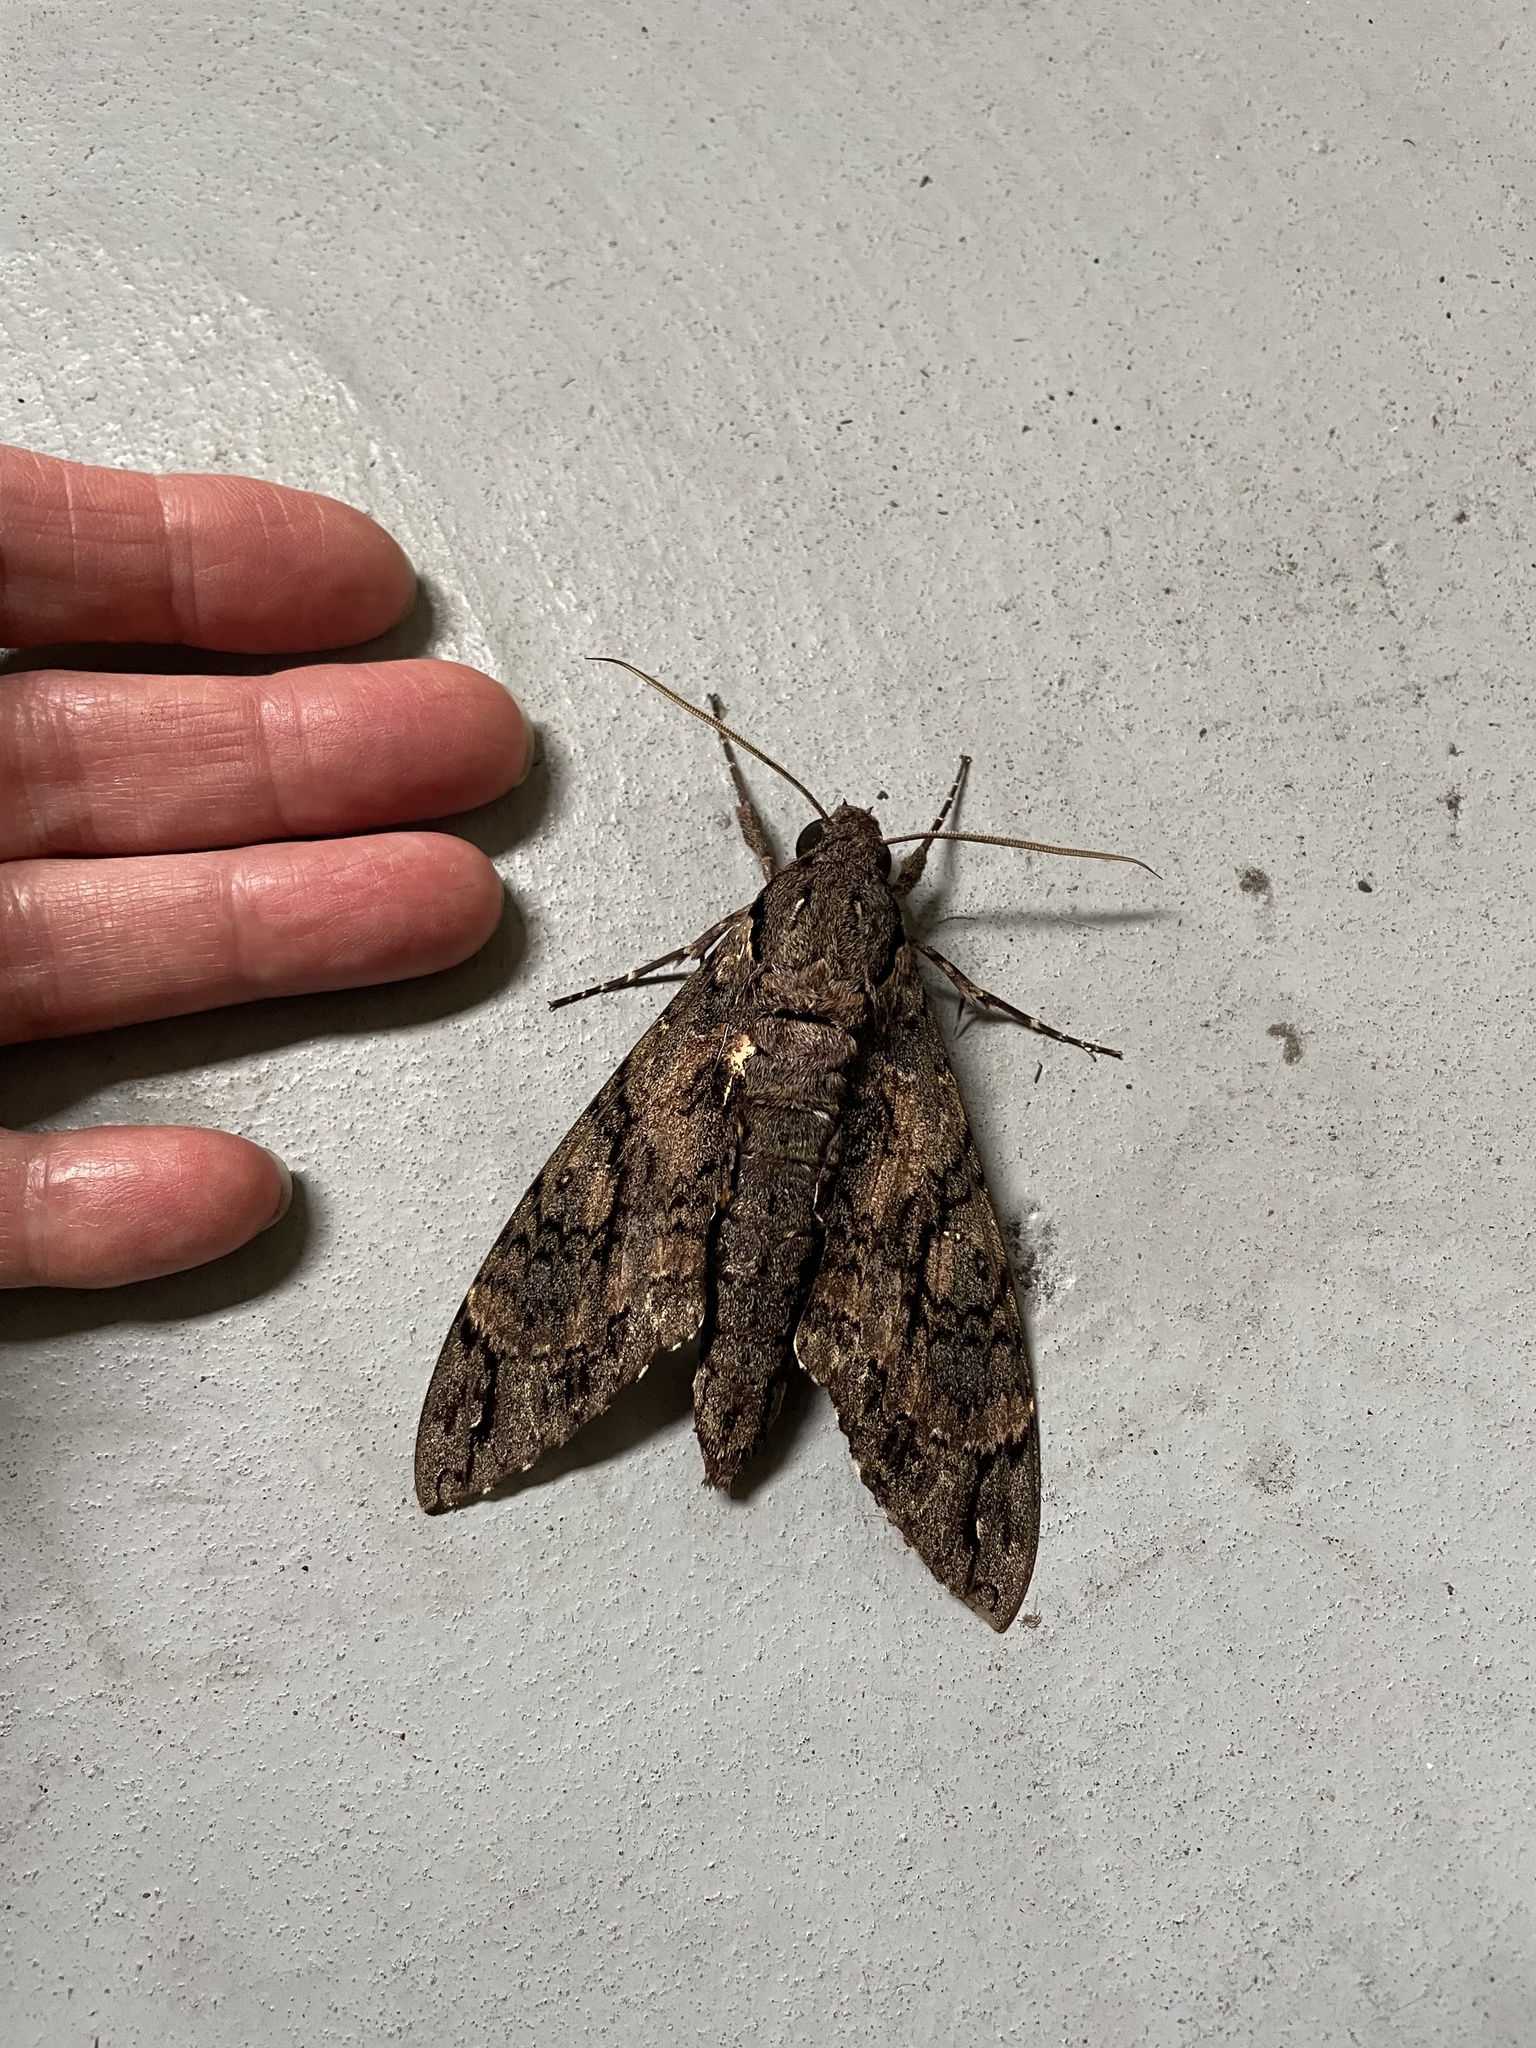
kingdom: Animalia
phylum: Arthropoda
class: Insecta
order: Lepidoptera
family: Sphingidae
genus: Cocytius
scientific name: Cocytius antaeus
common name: Giant sphinx
